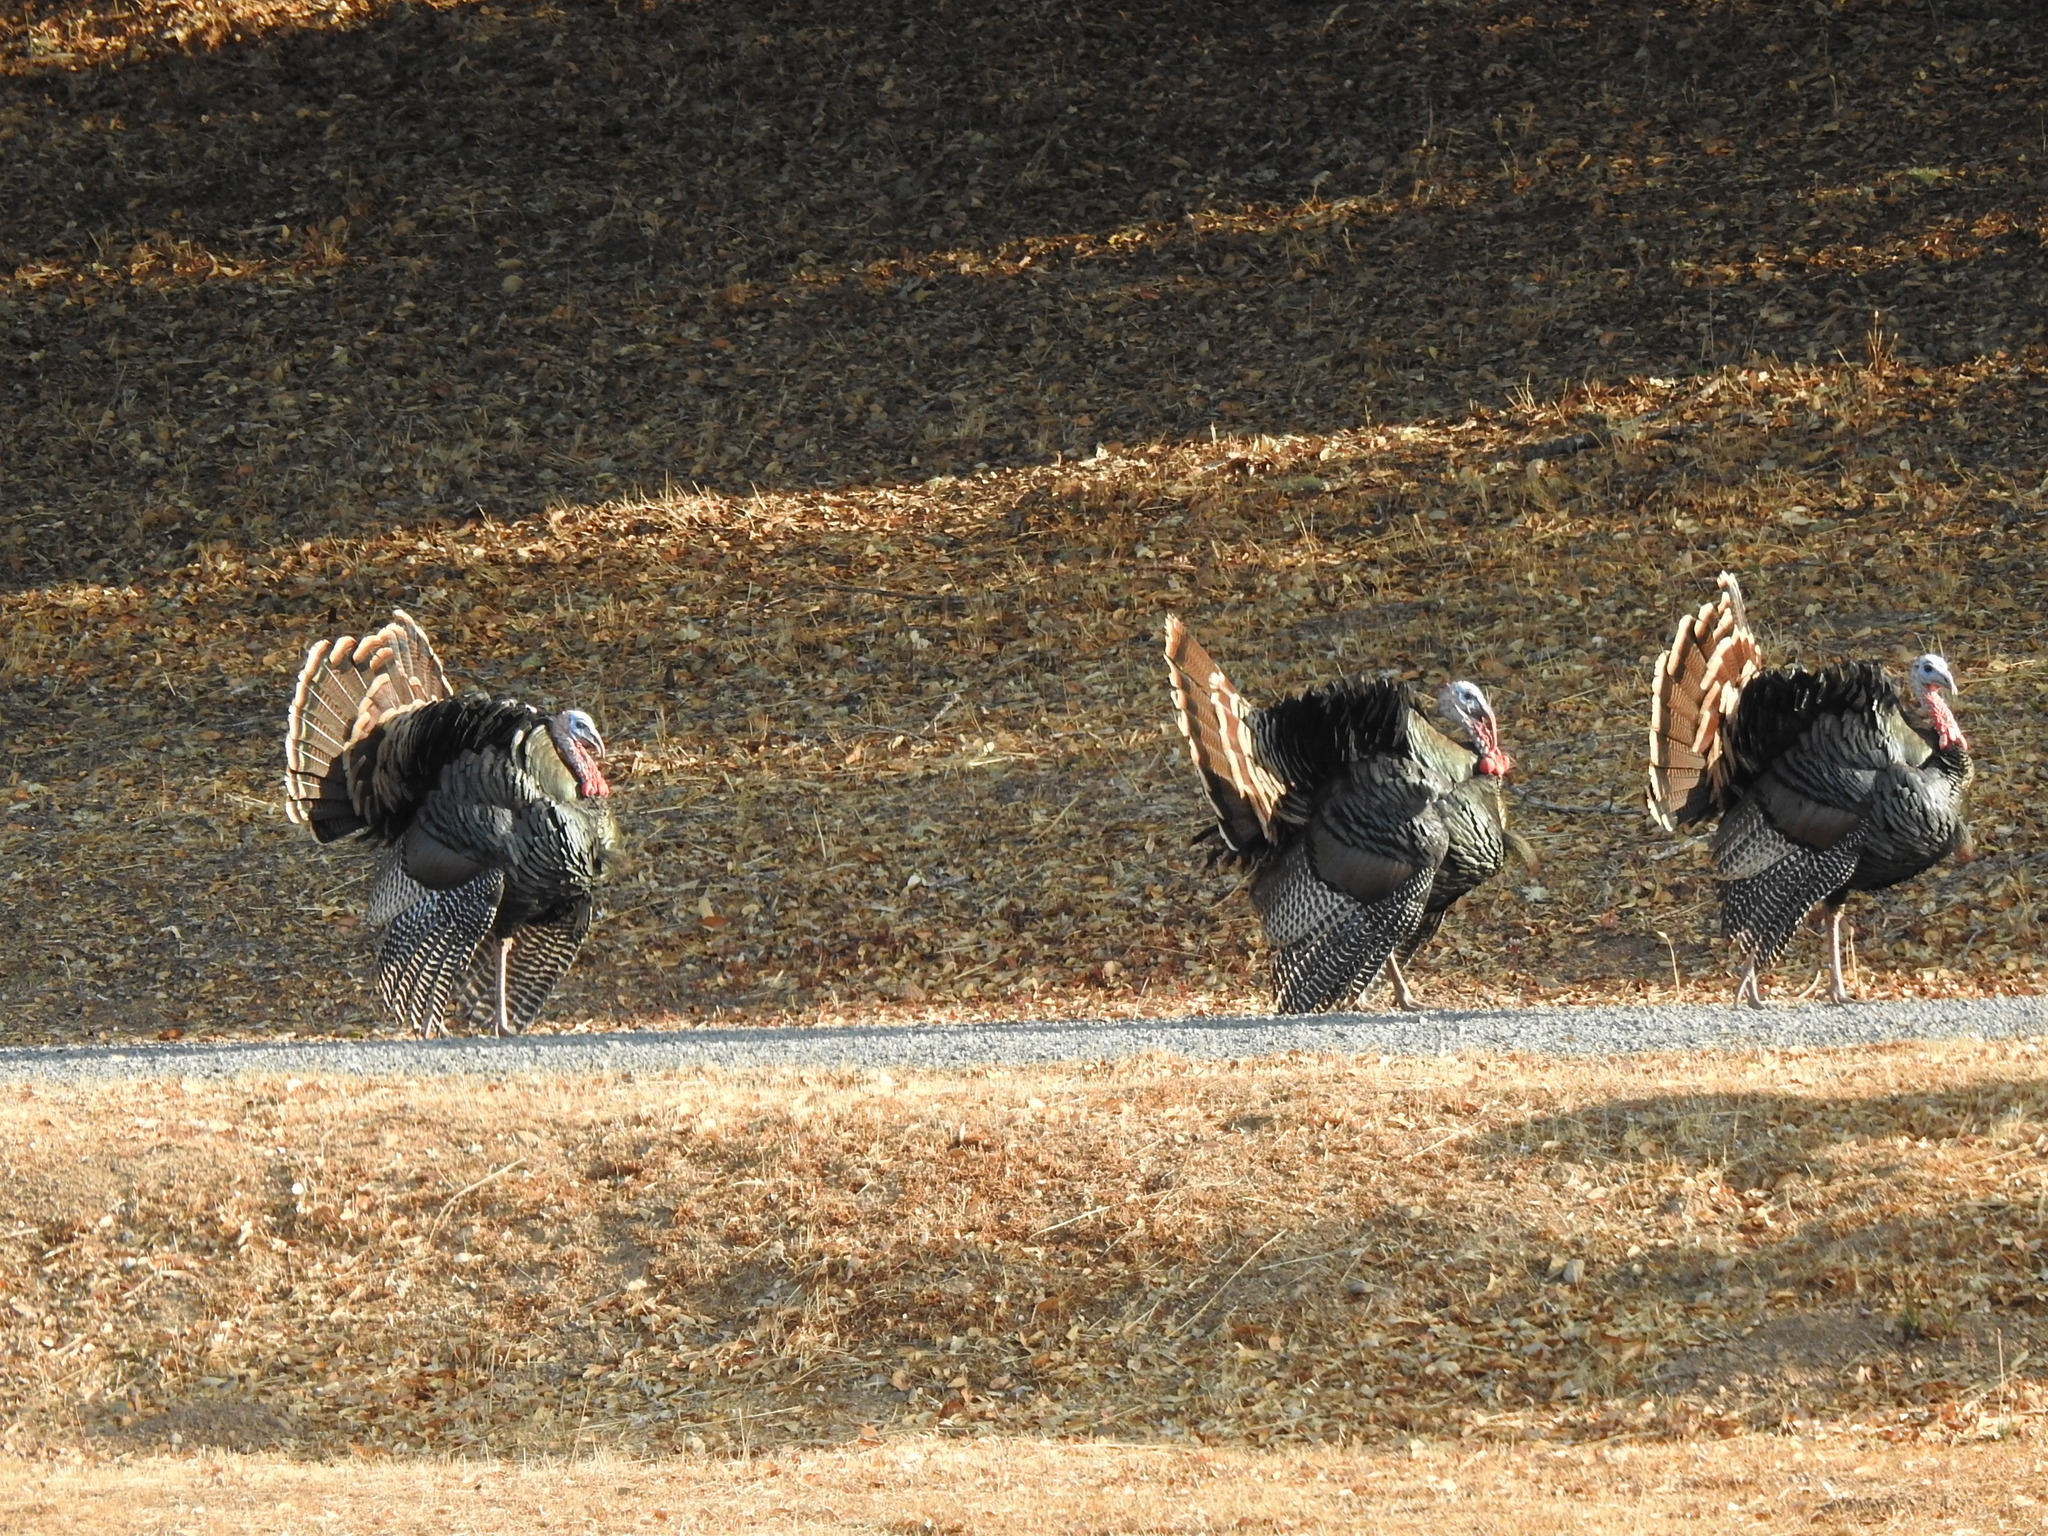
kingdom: Animalia
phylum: Chordata
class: Aves
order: Galliformes
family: Phasianidae
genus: Meleagris
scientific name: Meleagris gallopavo
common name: Wild turkey
